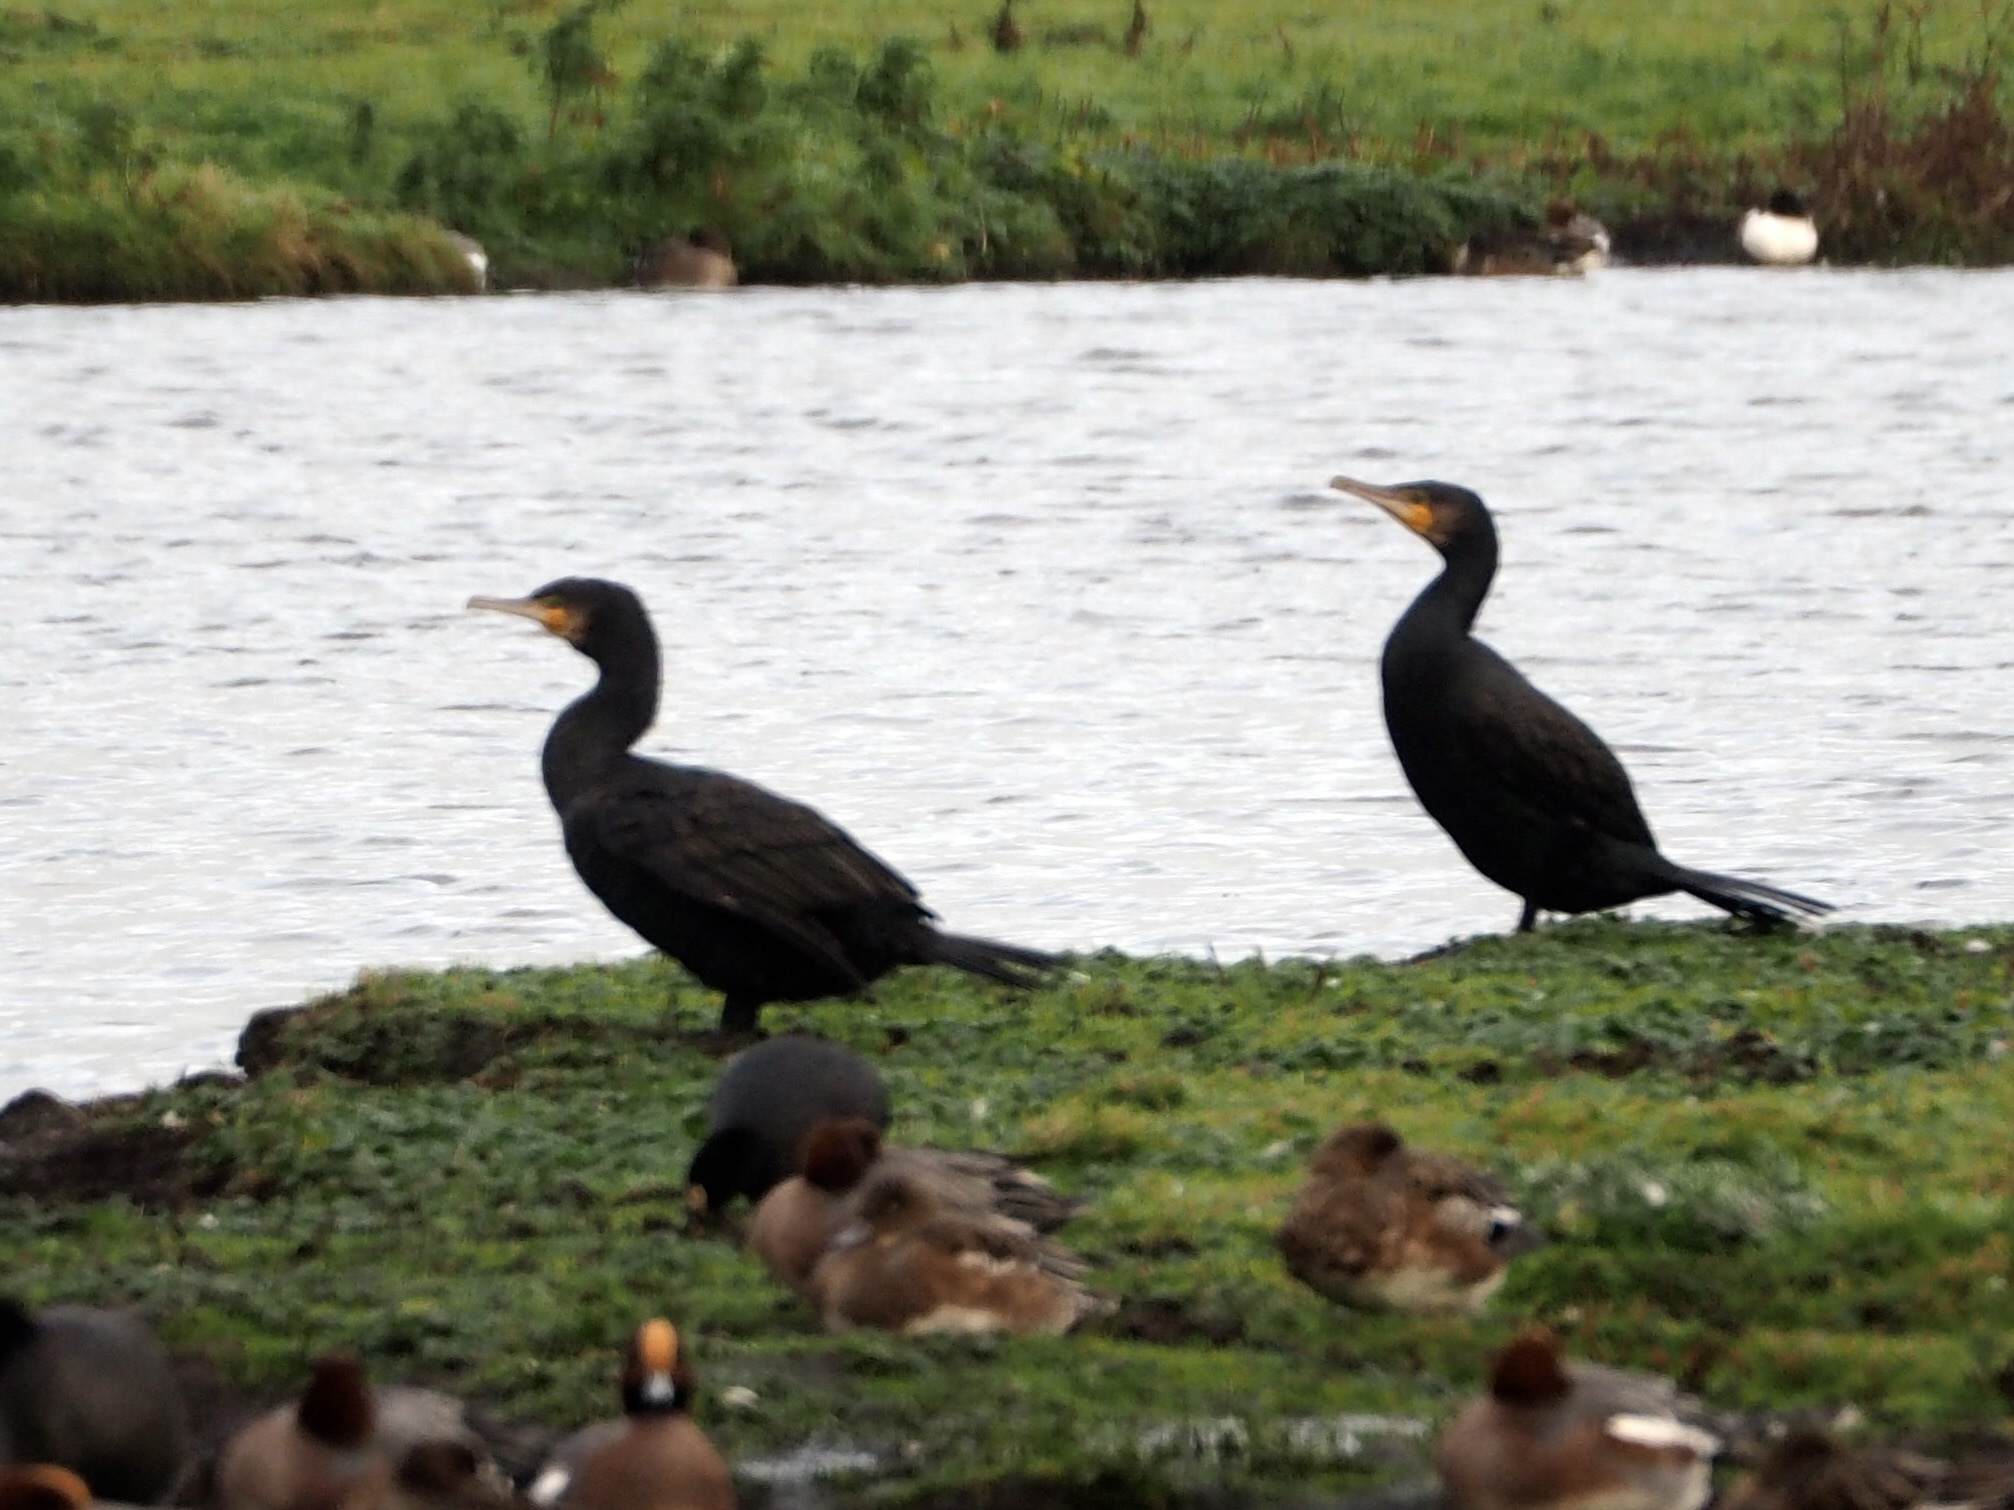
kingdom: Animalia
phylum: Chordata
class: Aves
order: Suliformes
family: Phalacrocoracidae
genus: Phalacrocorax
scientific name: Phalacrocorax carbo
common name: Great cormorant
